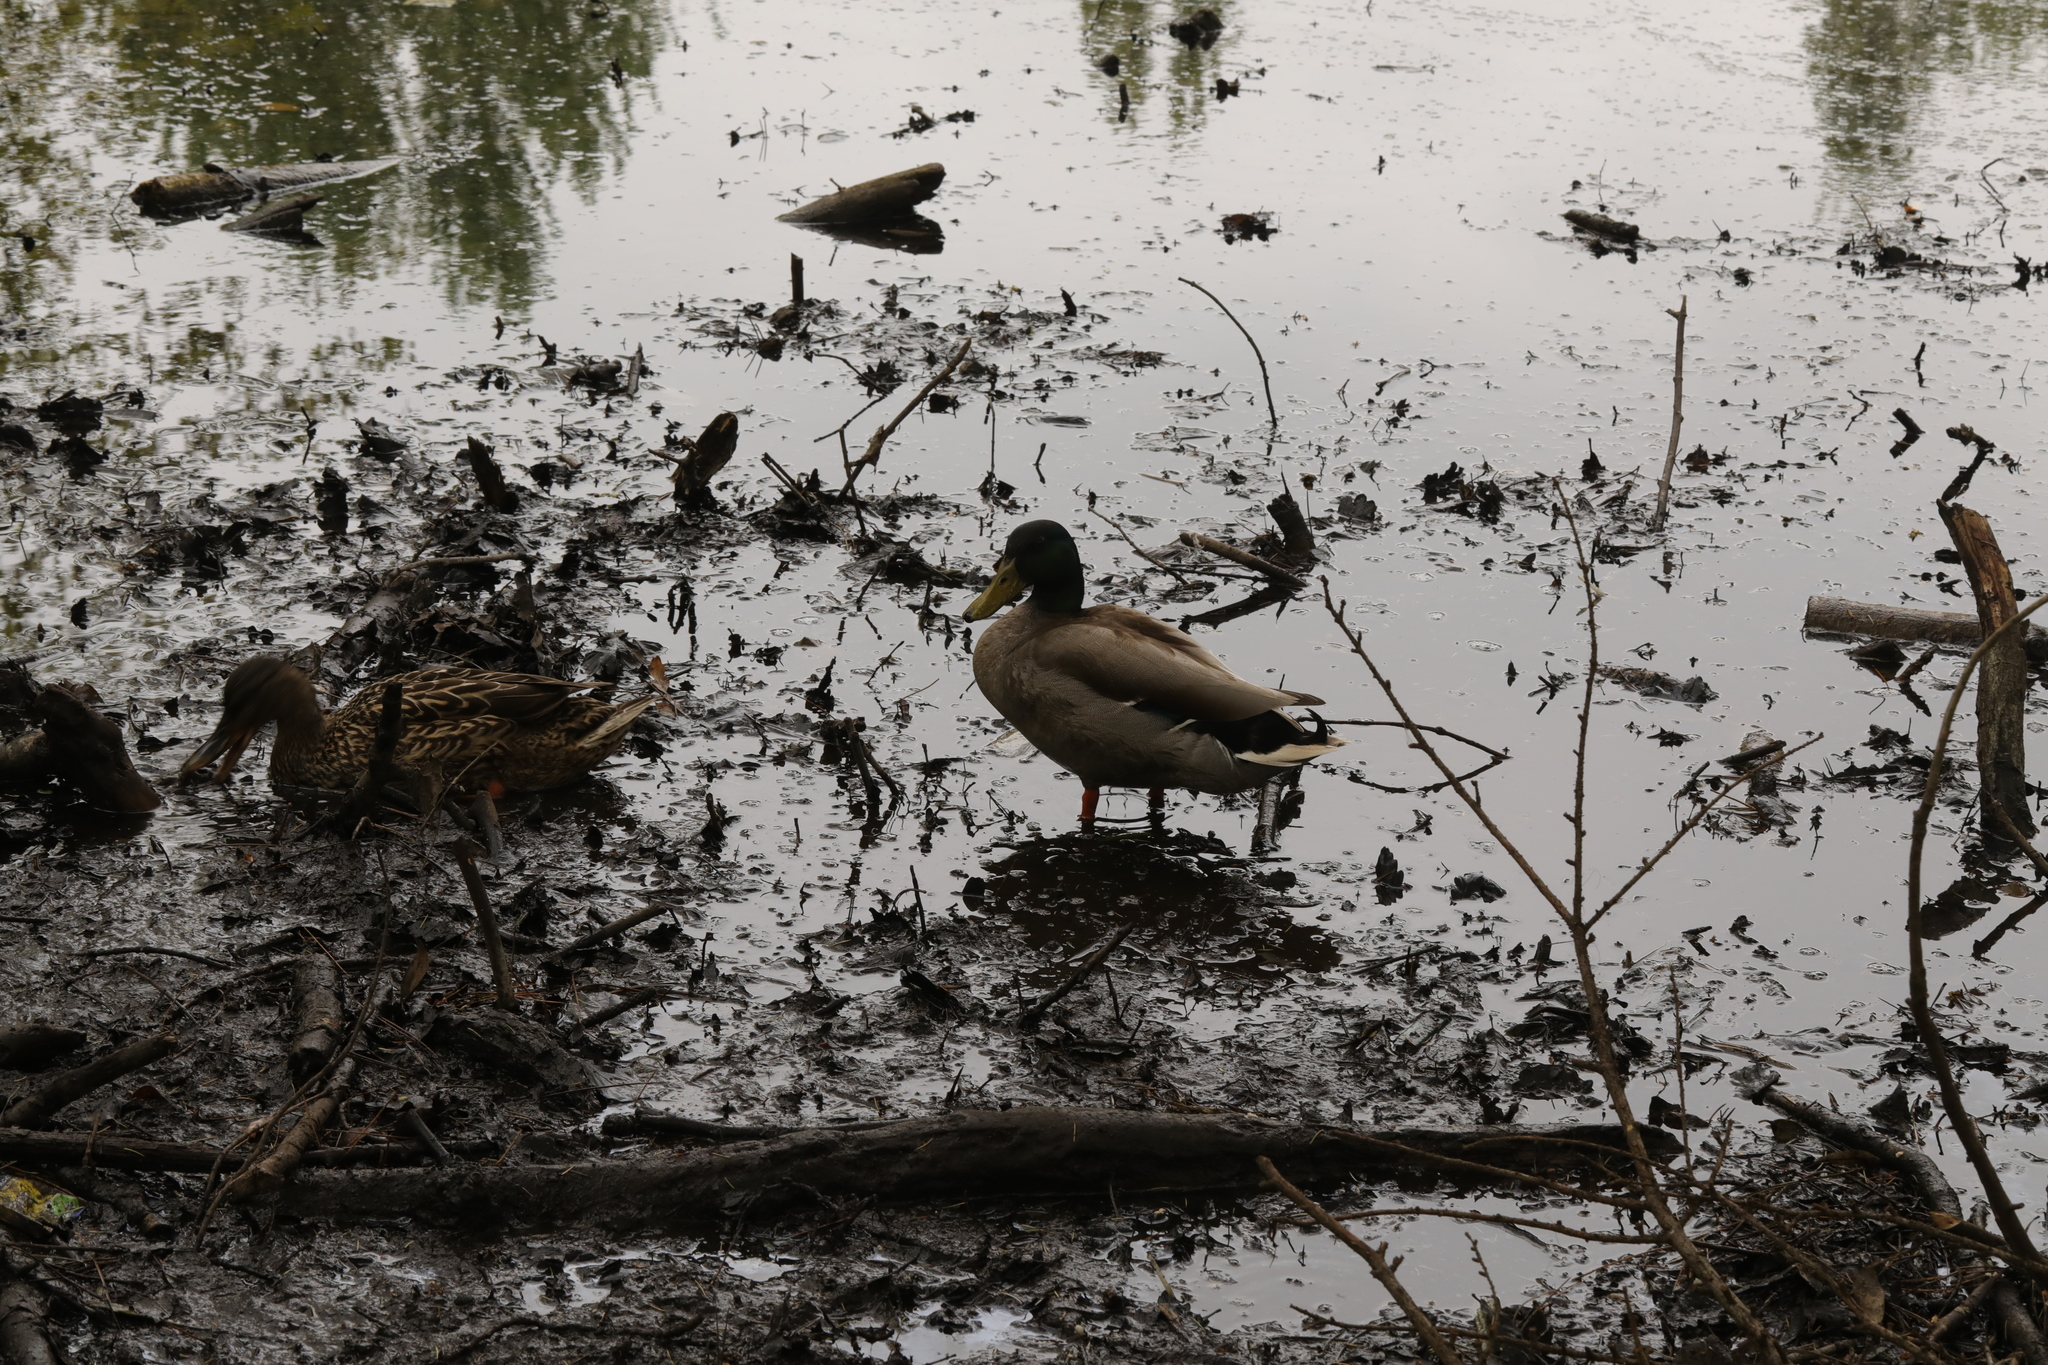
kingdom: Animalia
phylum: Chordata
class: Aves
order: Anseriformes
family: Anatidae
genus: Anas
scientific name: Anas platyrhynchos
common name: Mallard
